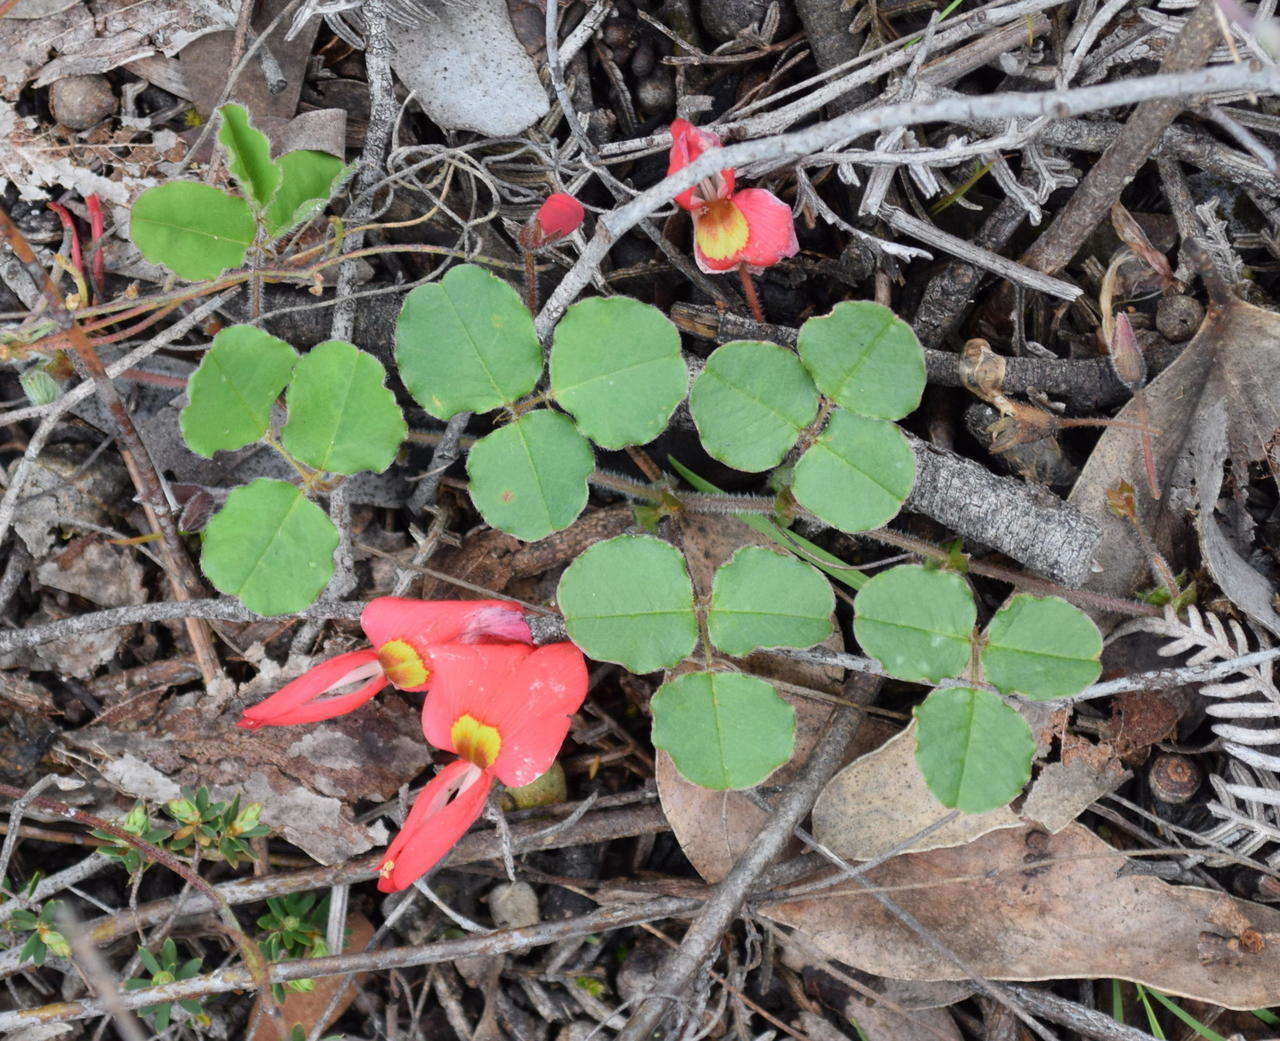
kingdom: Plantae
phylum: Tracheophyta
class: Magnoliopsida
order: Fabales
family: Fabaceae
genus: Kennedia
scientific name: Kennedia prostrata
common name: Running-postman
